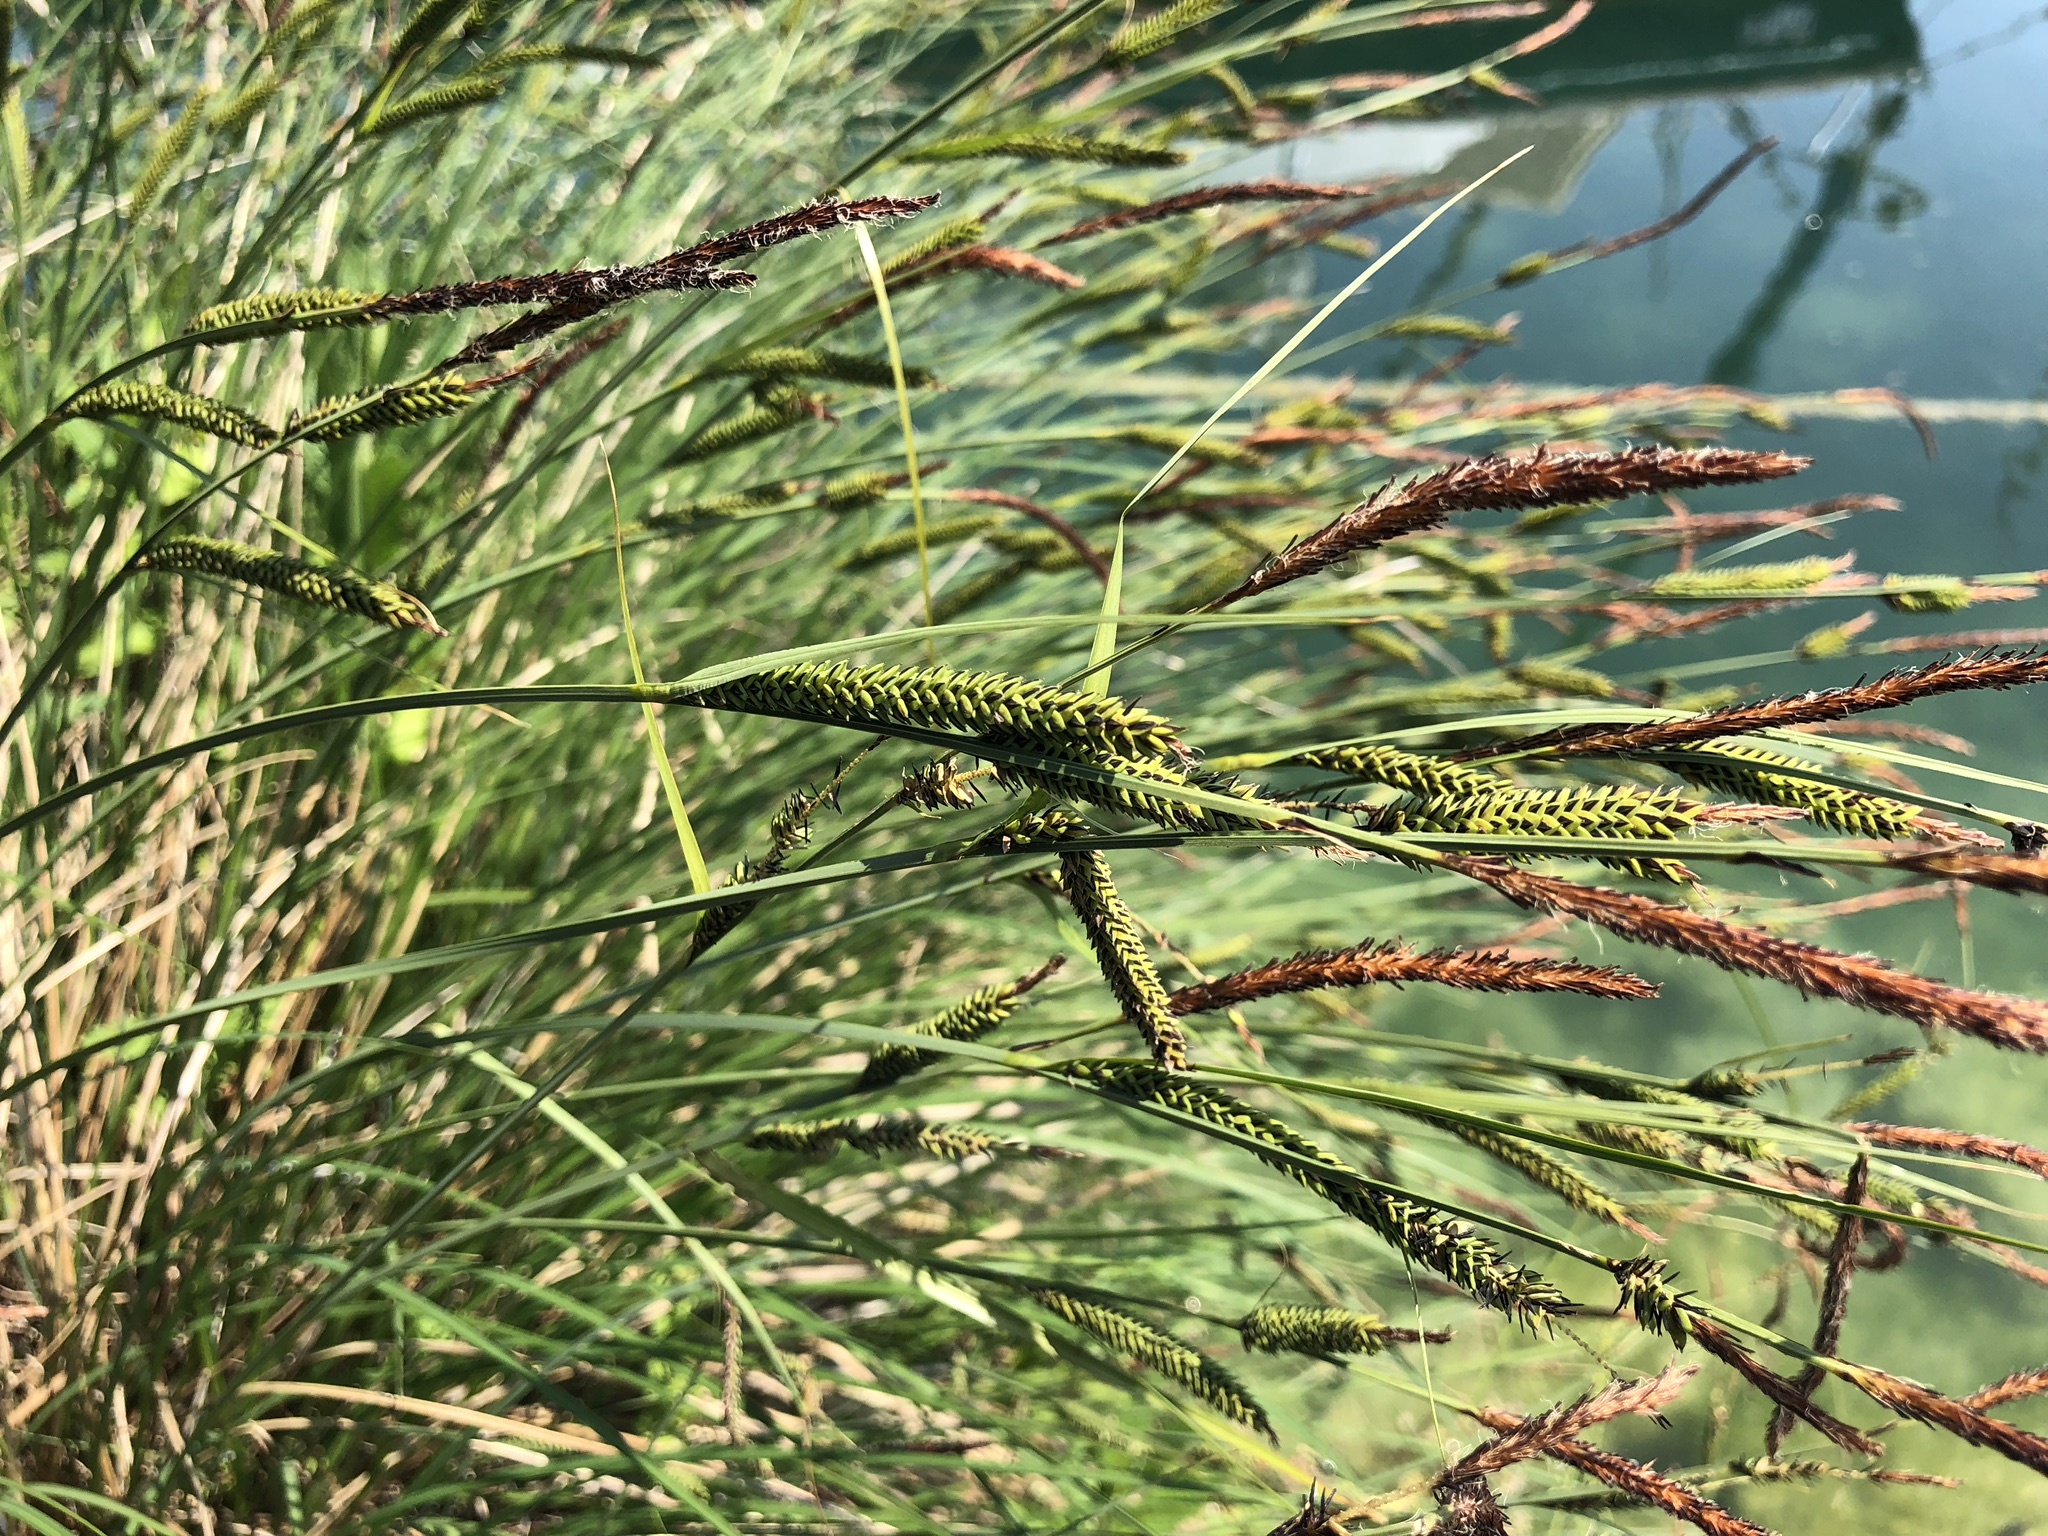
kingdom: Plantae
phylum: Tracheophyta
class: Liliopsida
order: Poales
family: Cyperaceae
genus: Carex
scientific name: Carex elata
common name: Tufted sedge
